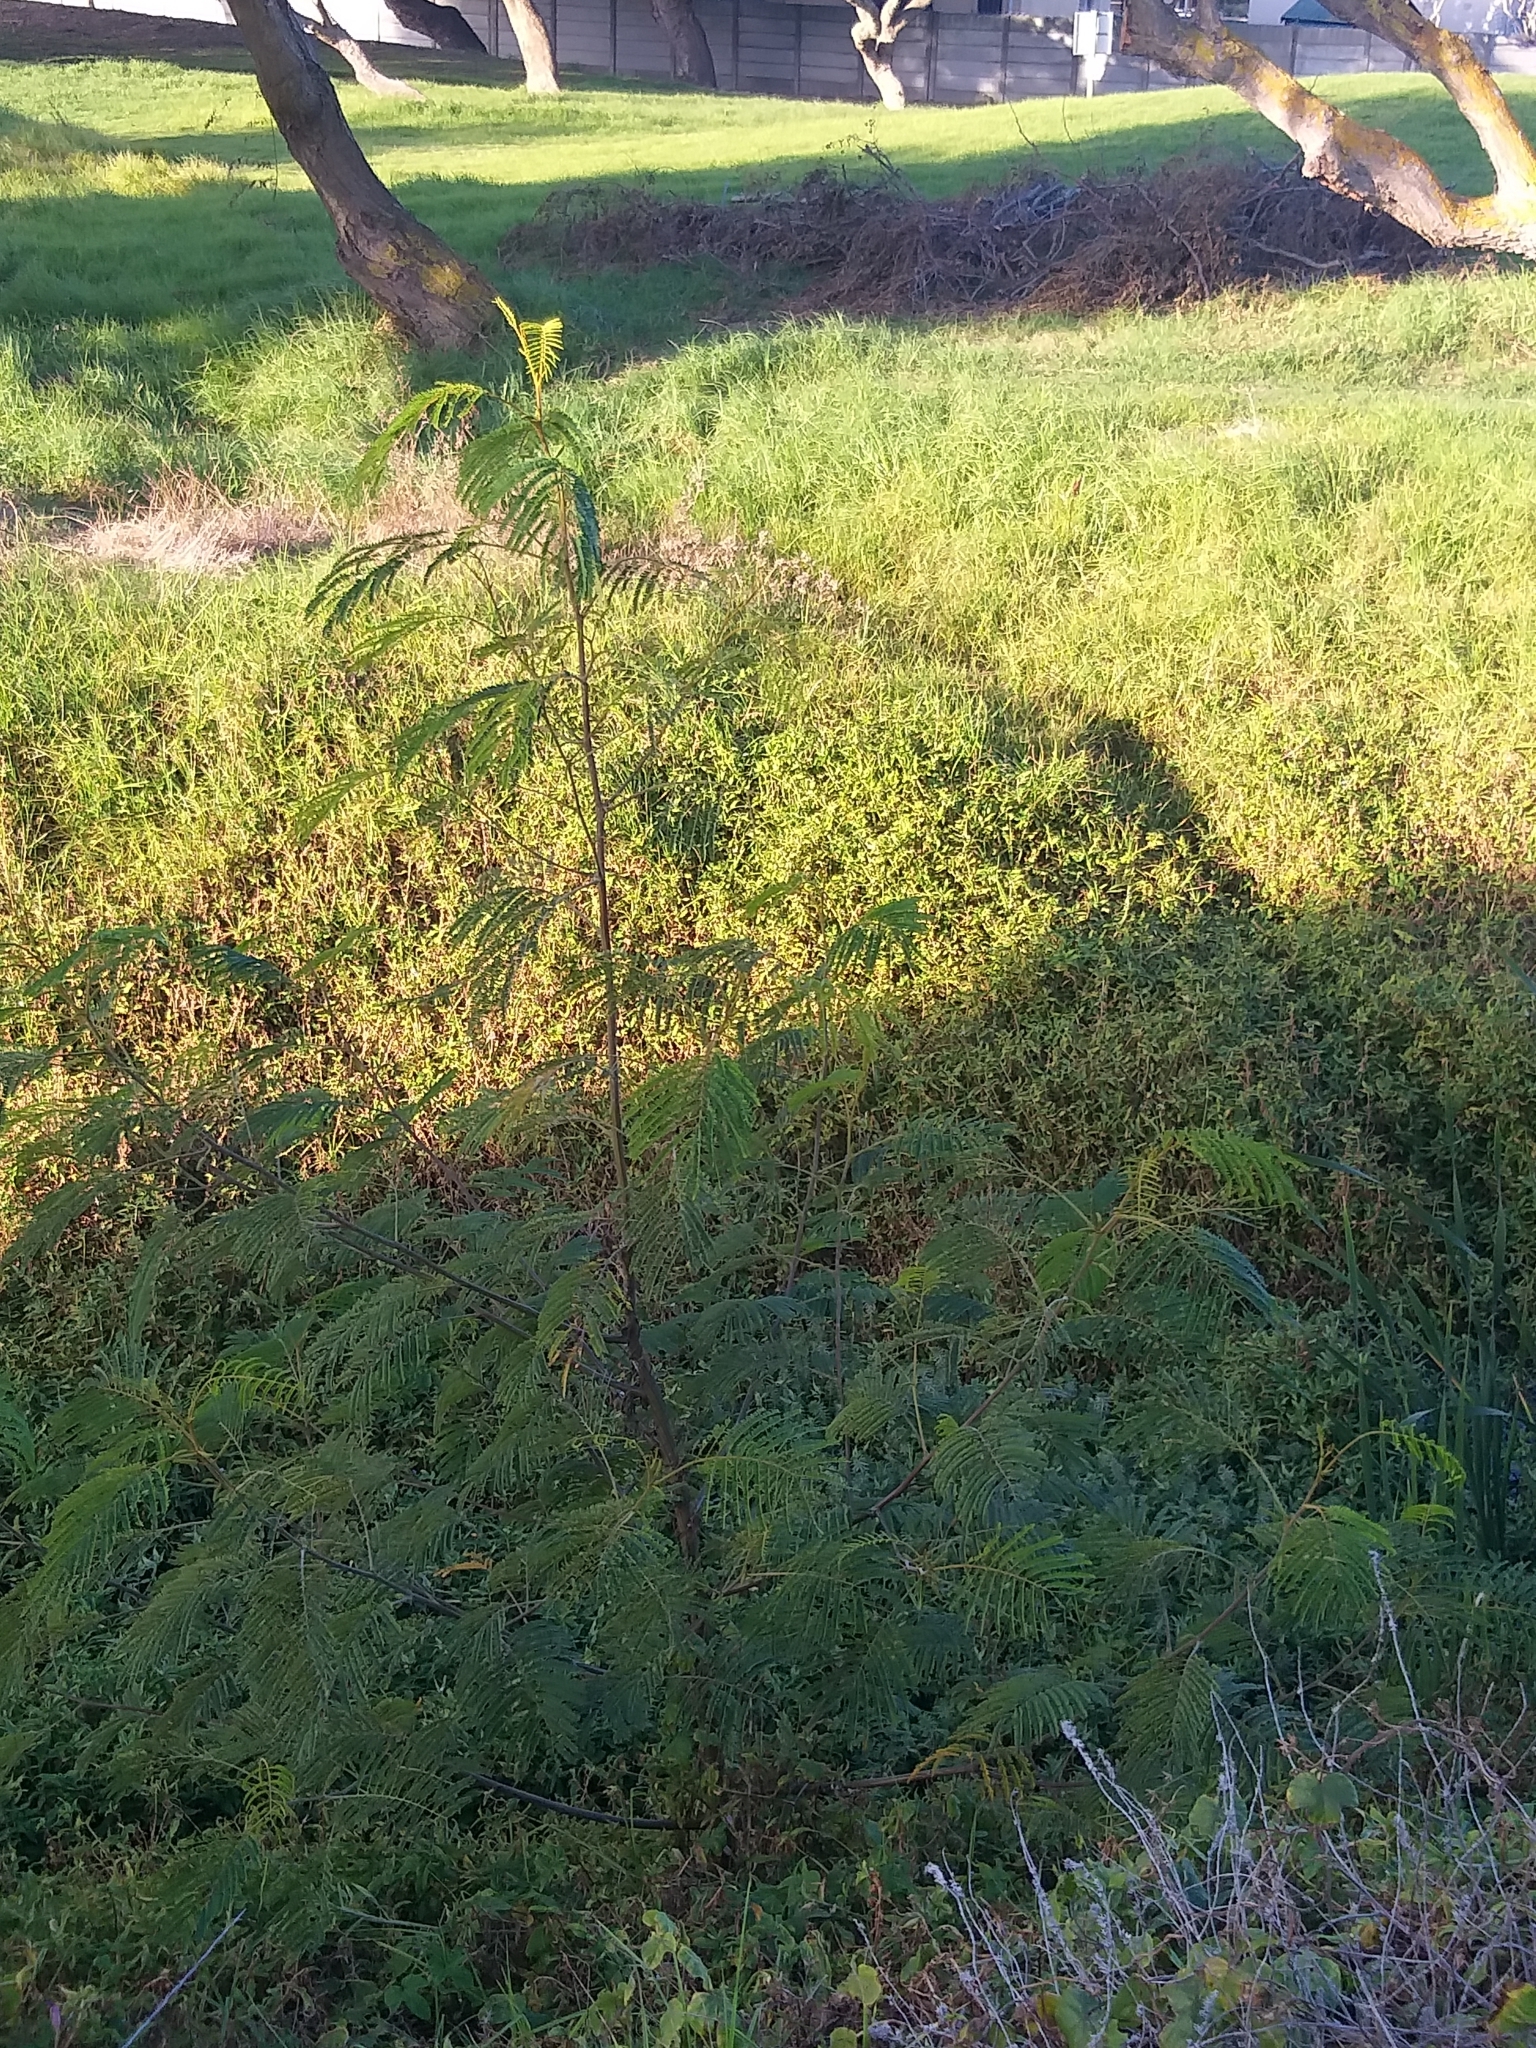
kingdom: Plantae
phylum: Tracheophyta
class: Magnoliopsida
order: Fabales
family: Fabaceae
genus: Paraserianthes
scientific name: Paraserianthes lophantha
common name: Plume albizia
